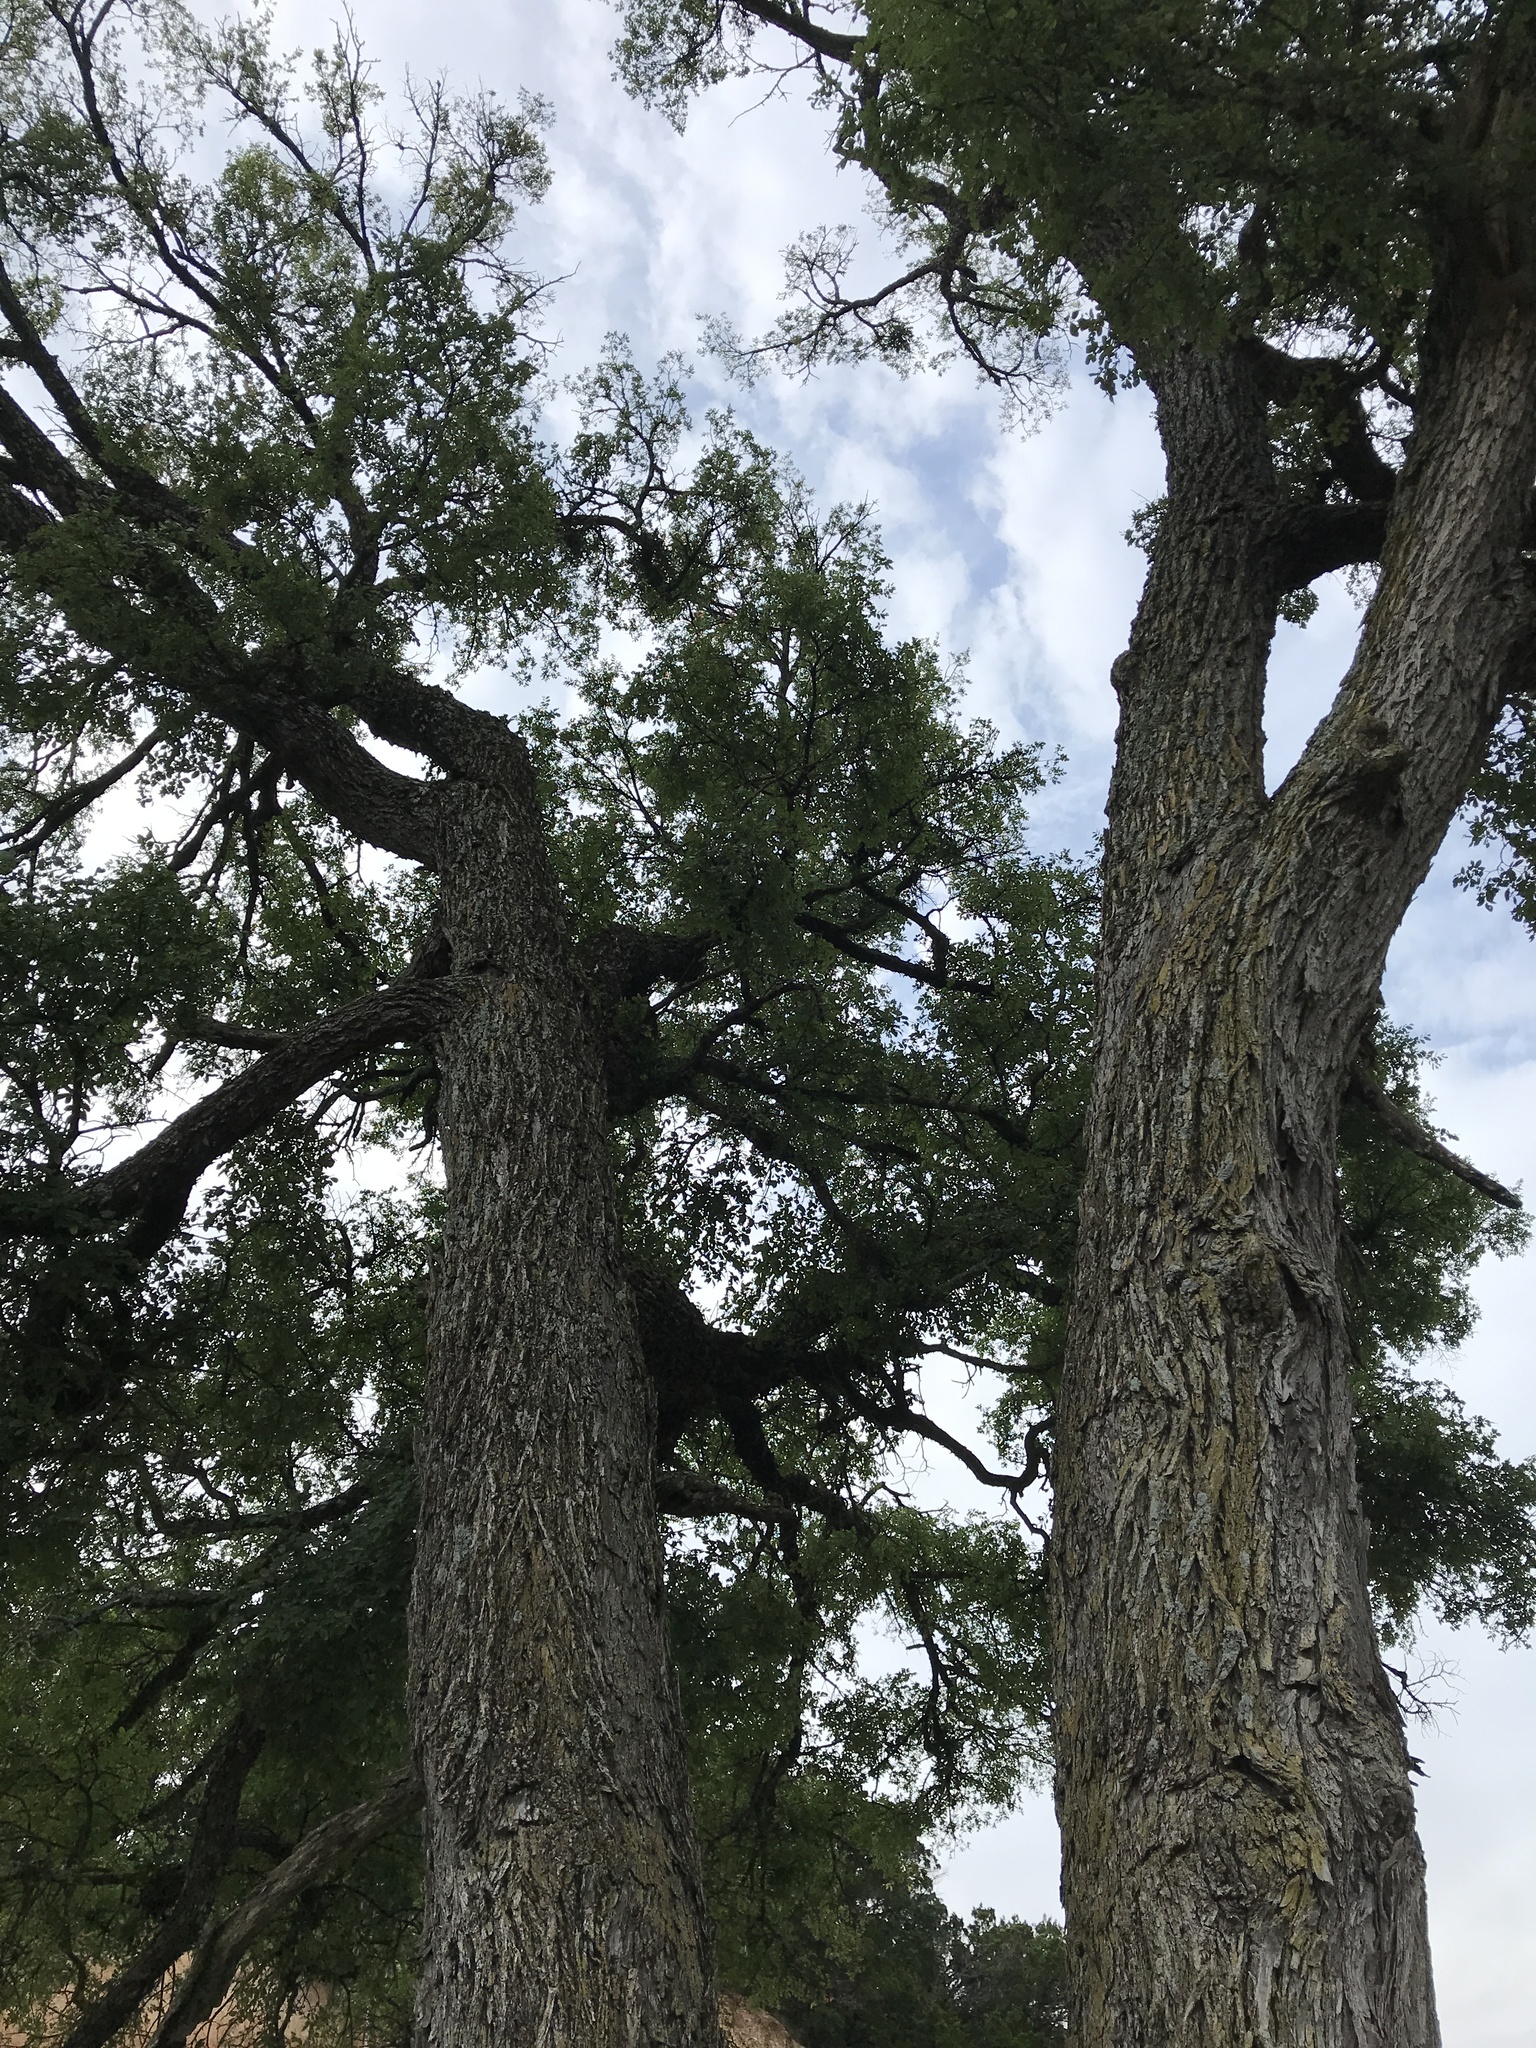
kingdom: Plantae
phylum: Tracheophyta
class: Magnoliopsida
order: Rosales
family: Ulmaceae
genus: Ulmus
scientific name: Ulmus crassifolia
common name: Basket elm
